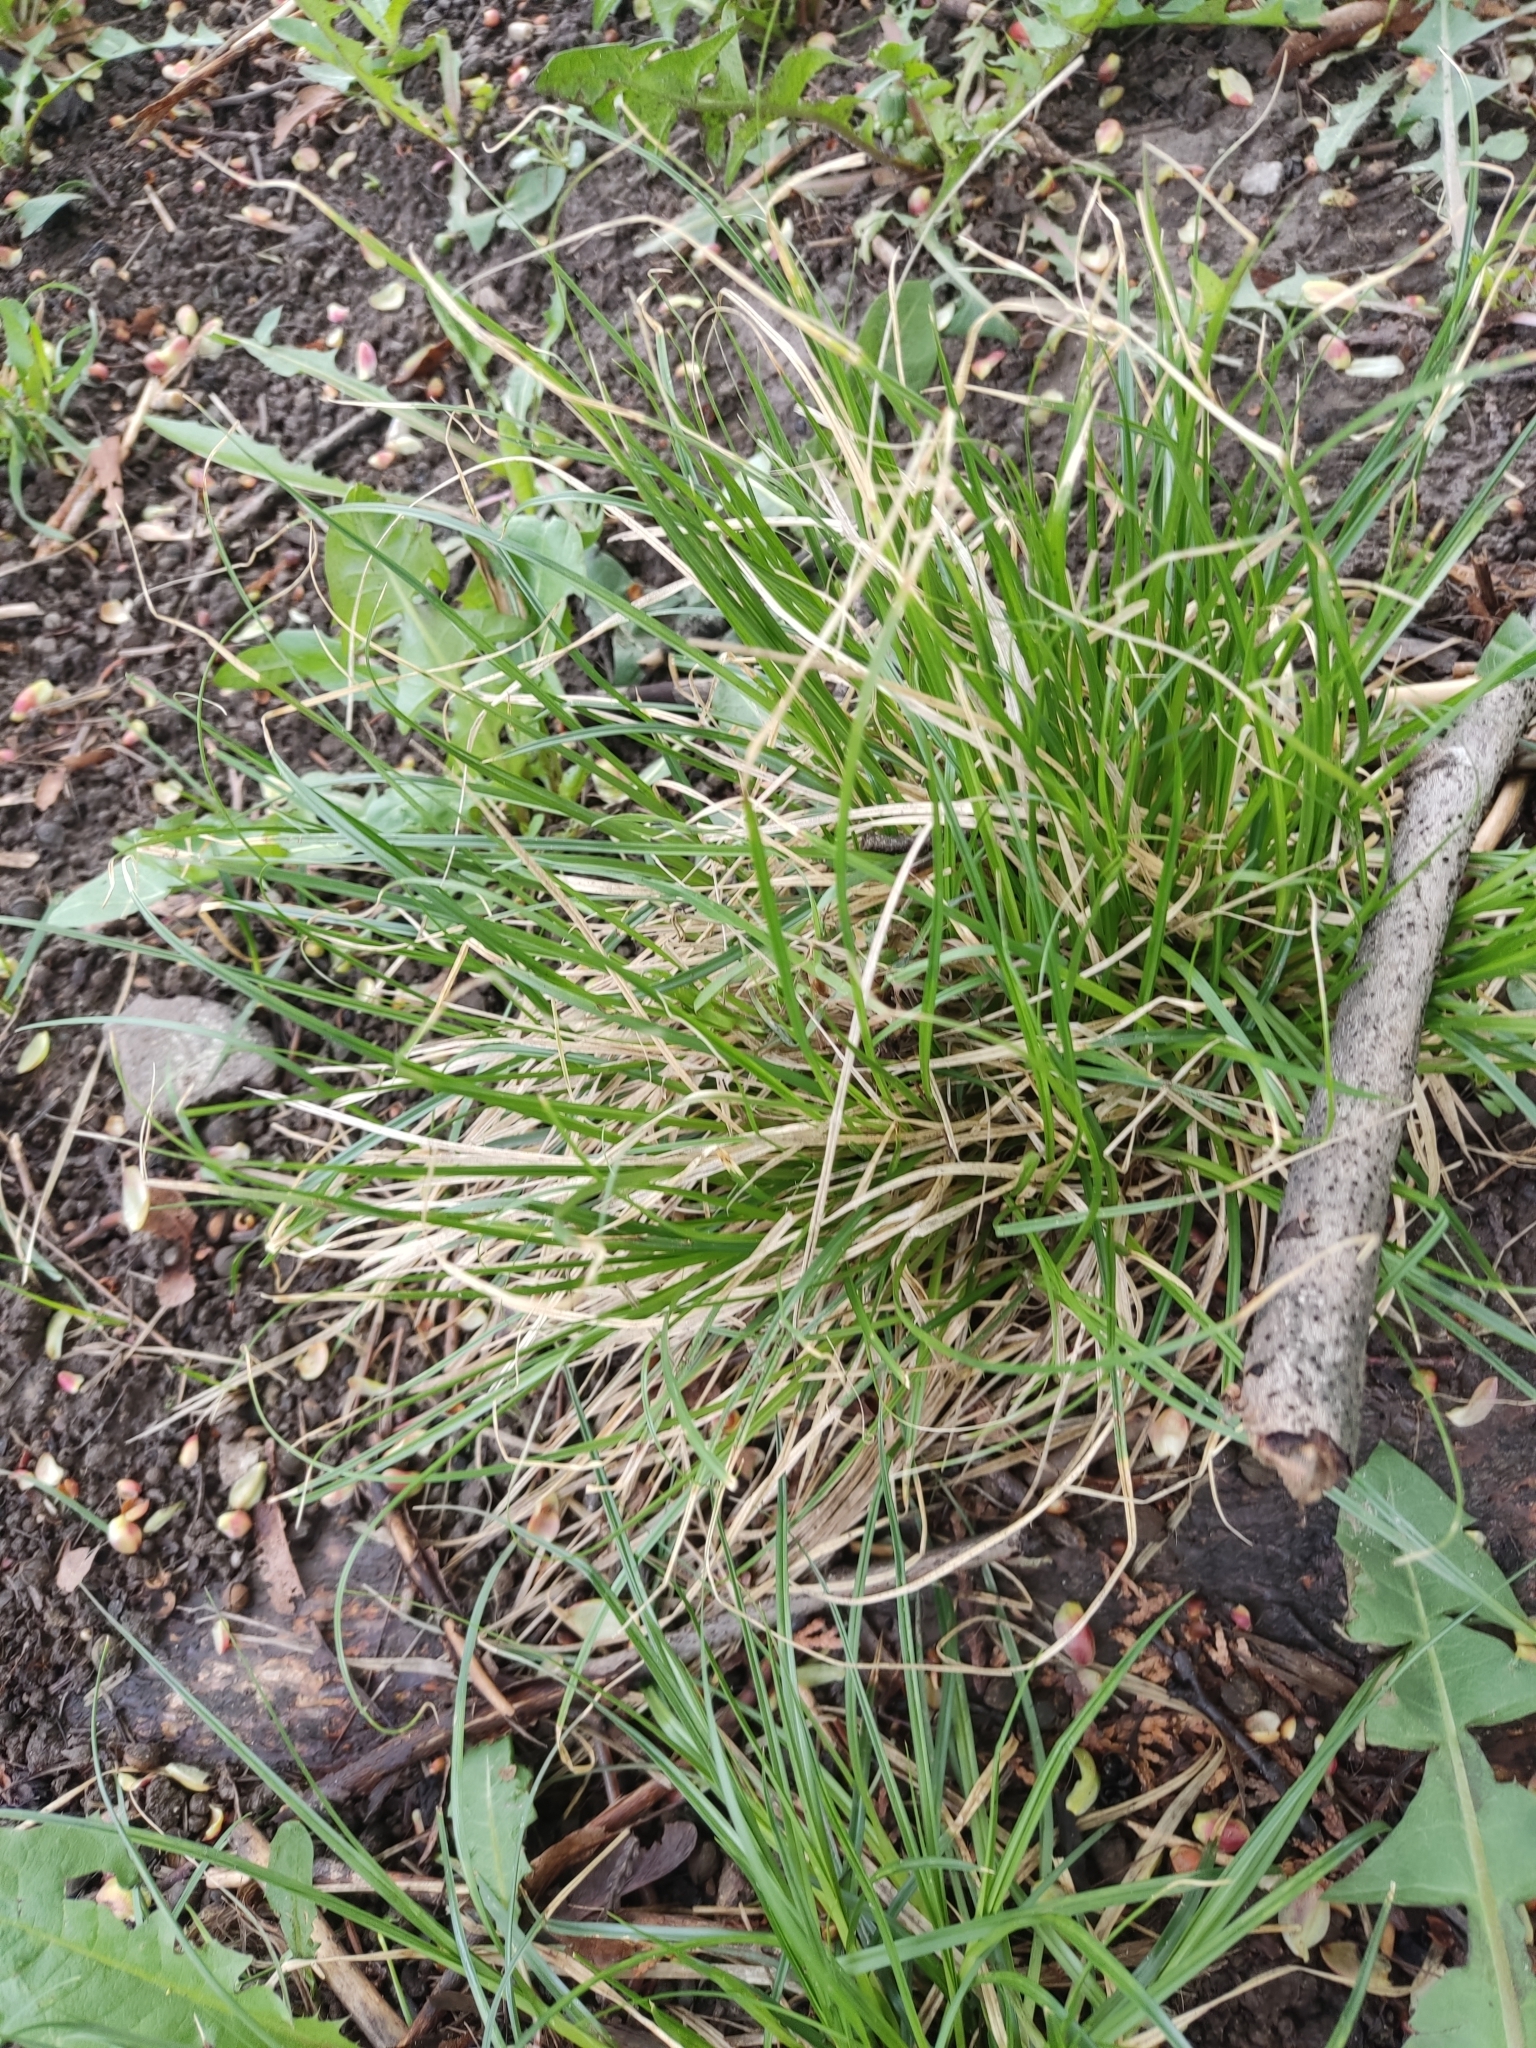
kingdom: Plantae
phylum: Tracheophyta
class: Liliopsida
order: Poales
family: Poaceae
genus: Deschampsia
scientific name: Deschampsia cespitosa
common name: Tufted hair-grass
